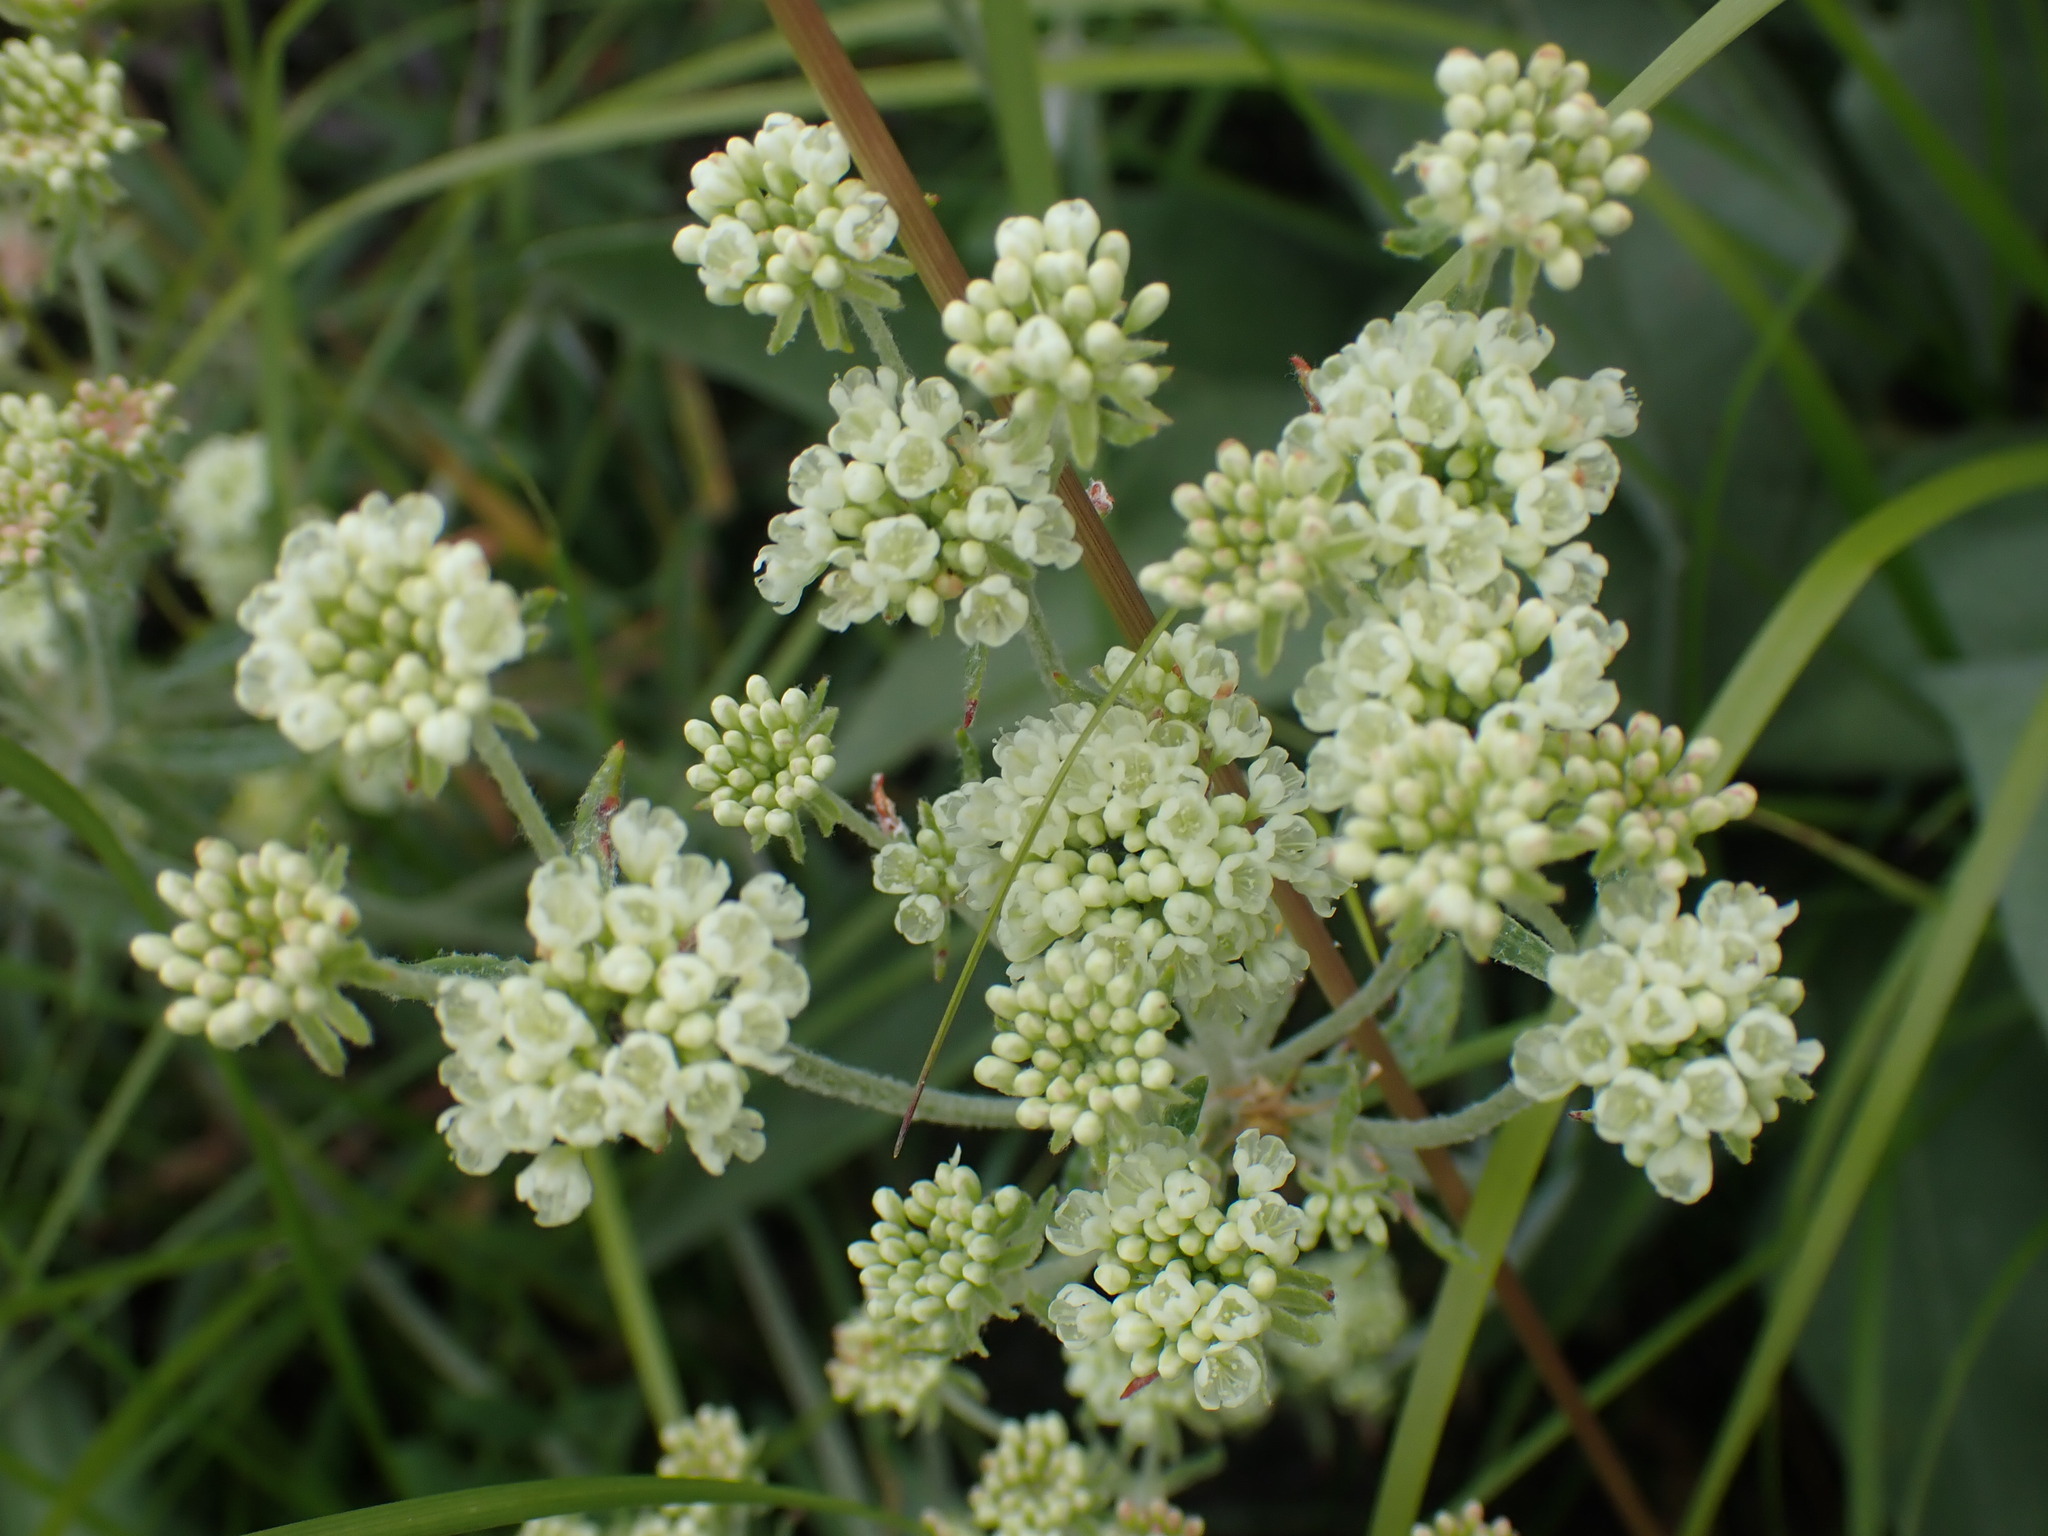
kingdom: Plantae
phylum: Tracheophyta
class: Magnoliopsida
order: Caryophyllales
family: Polygonaceae
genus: Eriogonum
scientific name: Eriogonum heracleoides
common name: Wyeth's buckwheat
